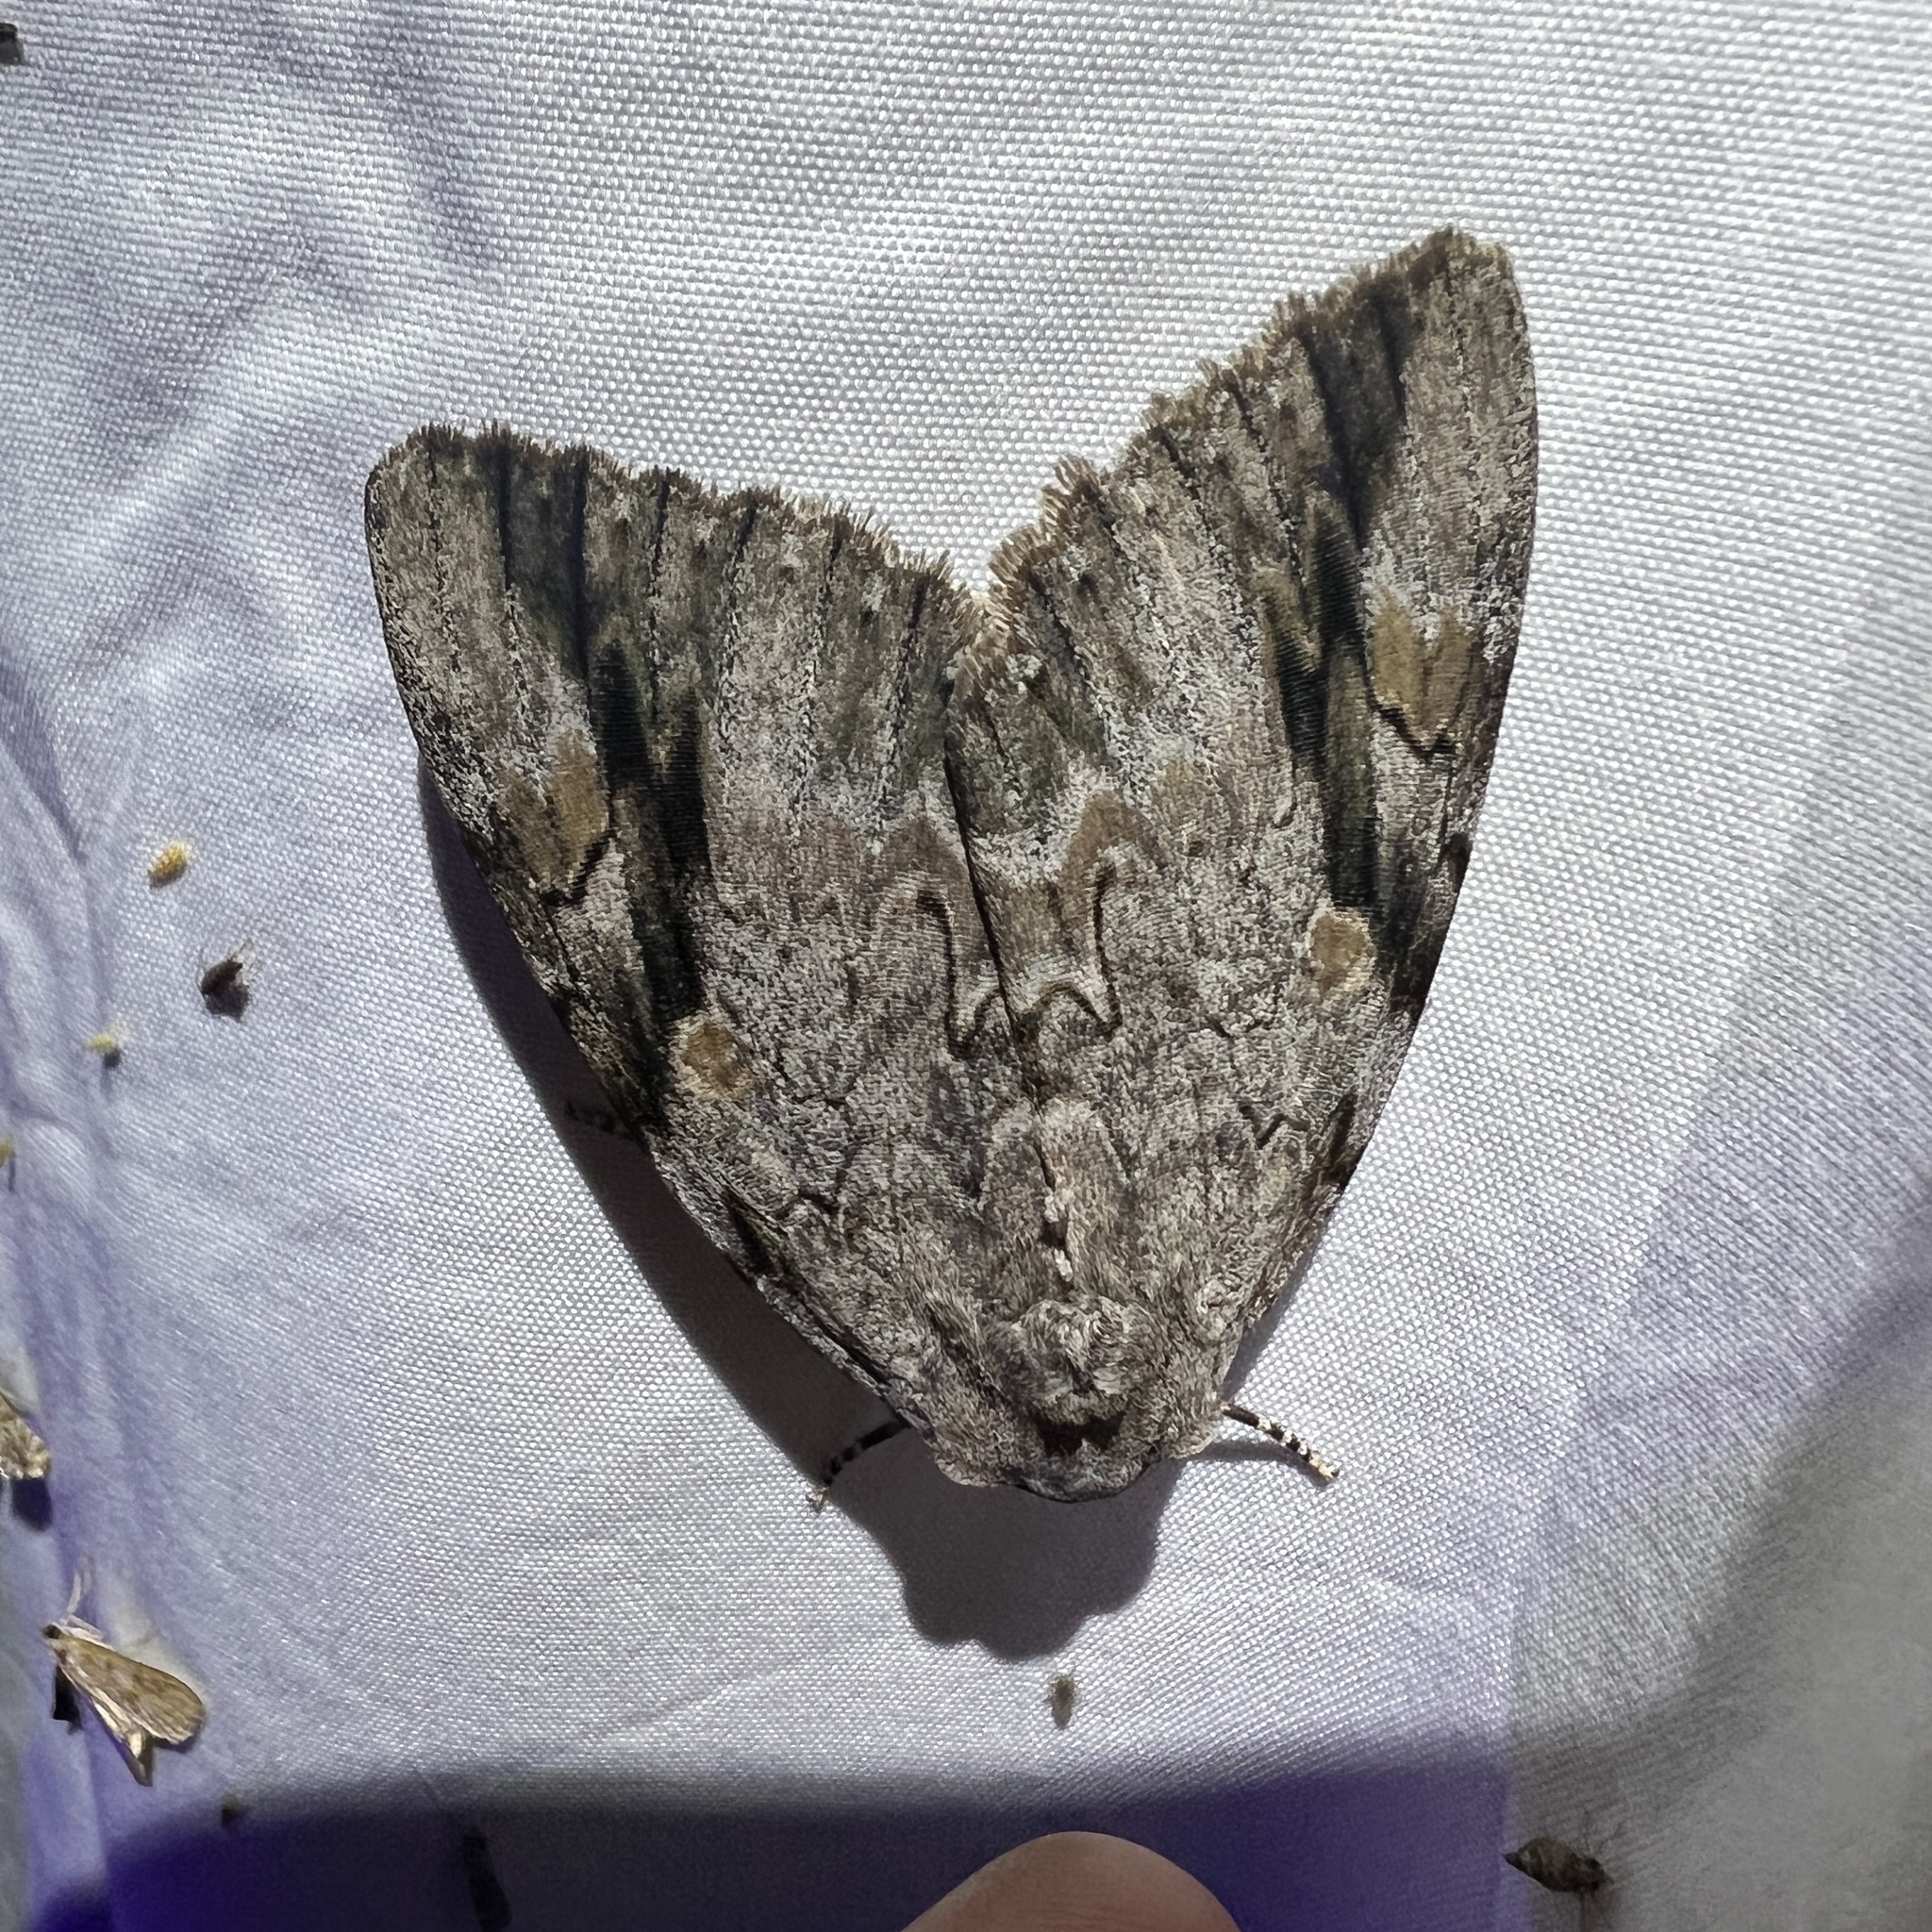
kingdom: Animalia
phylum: Arthropoda
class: Insecta
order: Lepidoptera
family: Erebidae
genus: Catocala
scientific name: Catocala maestosa
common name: Sad underwing
